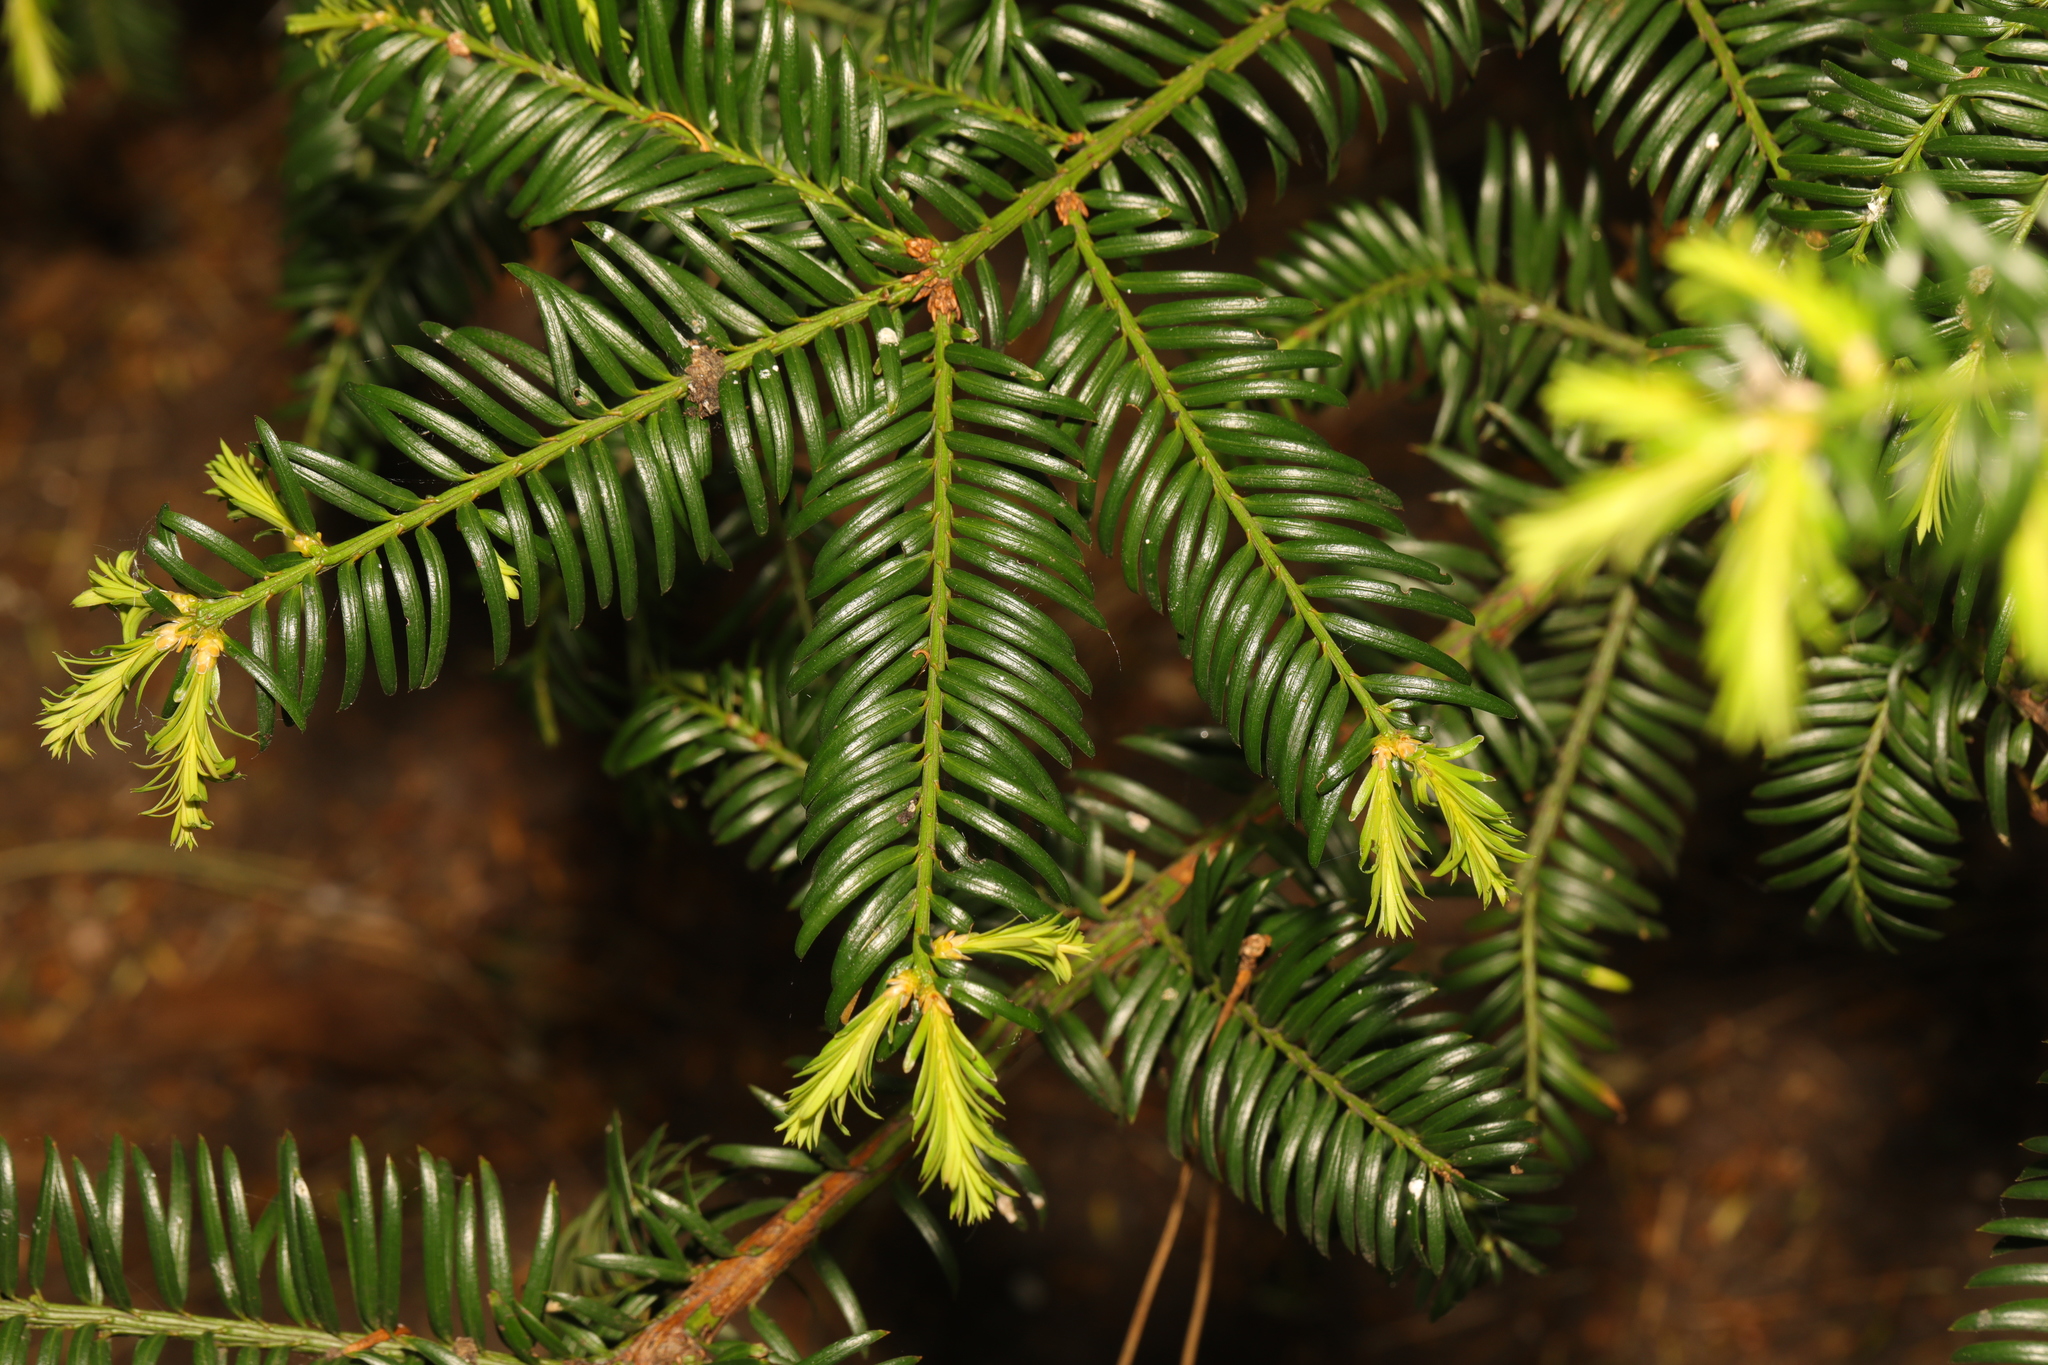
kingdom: Plantae
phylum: Tracheophyta
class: Pinopsida
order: Pinales
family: Taxaceae
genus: Taxus
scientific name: Taxus baccata
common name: Yew
